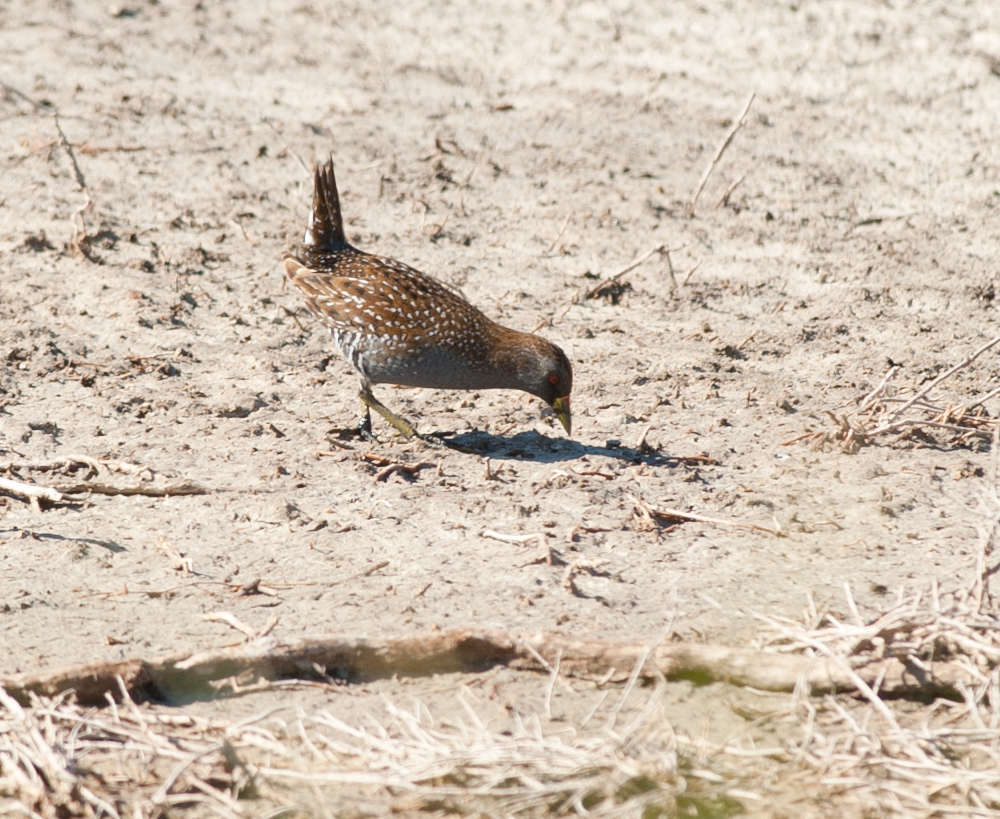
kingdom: Animalia
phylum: Chordata
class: Aves
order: Gruiformes
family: Rallidae
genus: Porzana
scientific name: Porzana fluminea
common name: Australian crake
